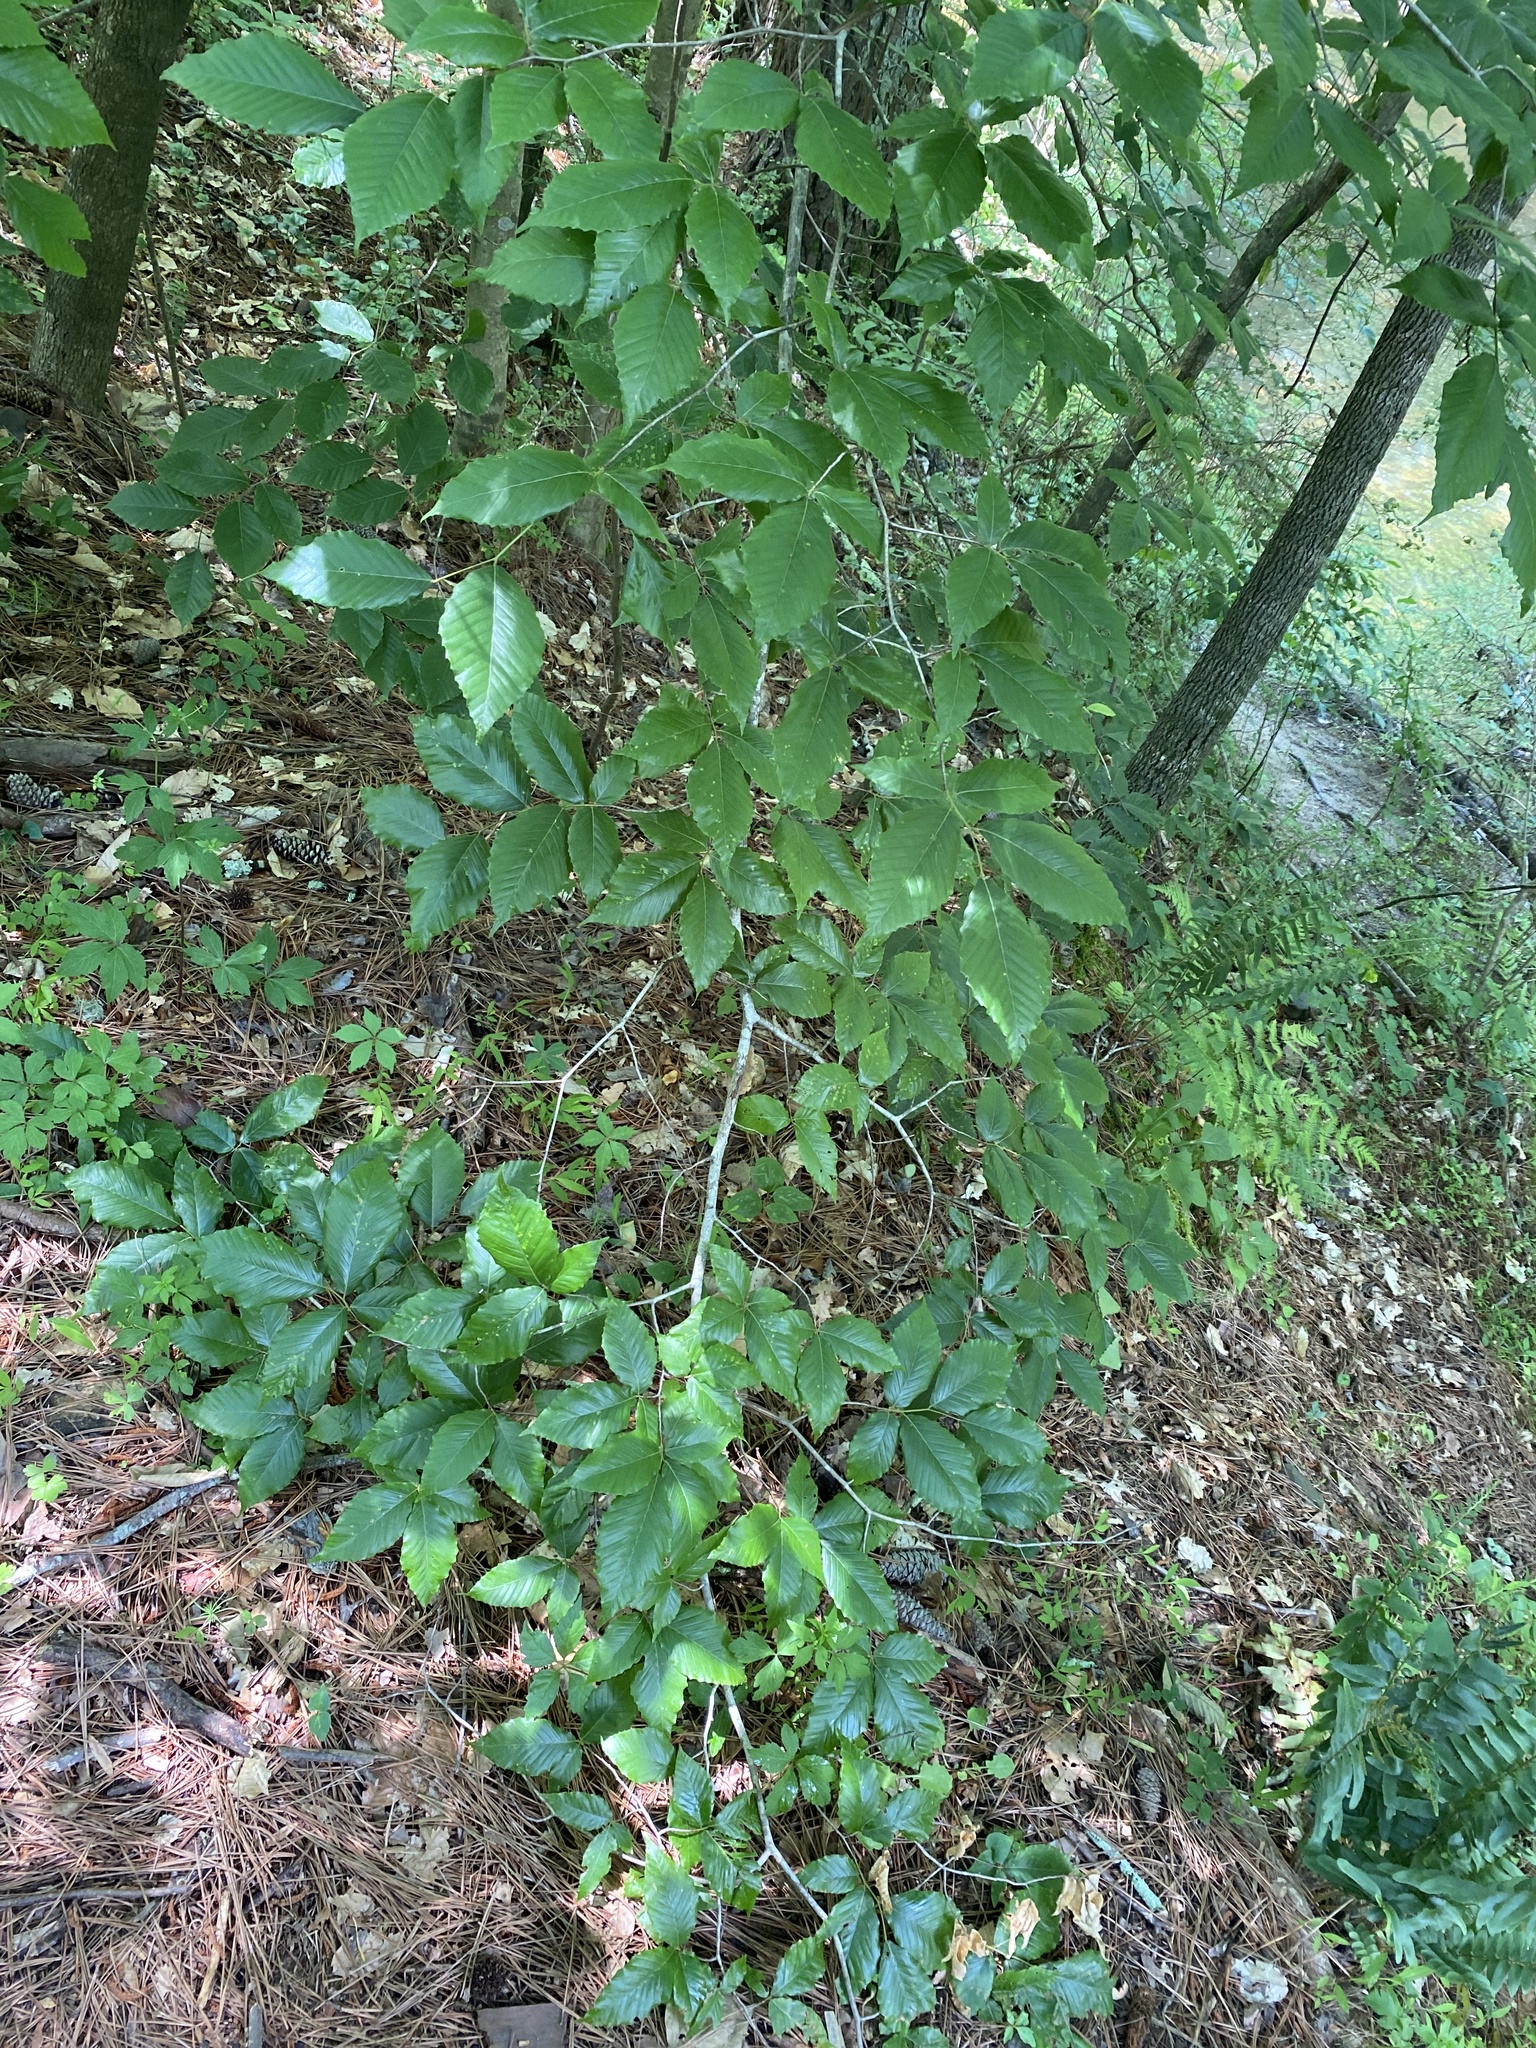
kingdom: Animalia
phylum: Arthropoda
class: Arachnida
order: Trombidiformes
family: Eriophyidae
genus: Acalitus
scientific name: Acalitus
